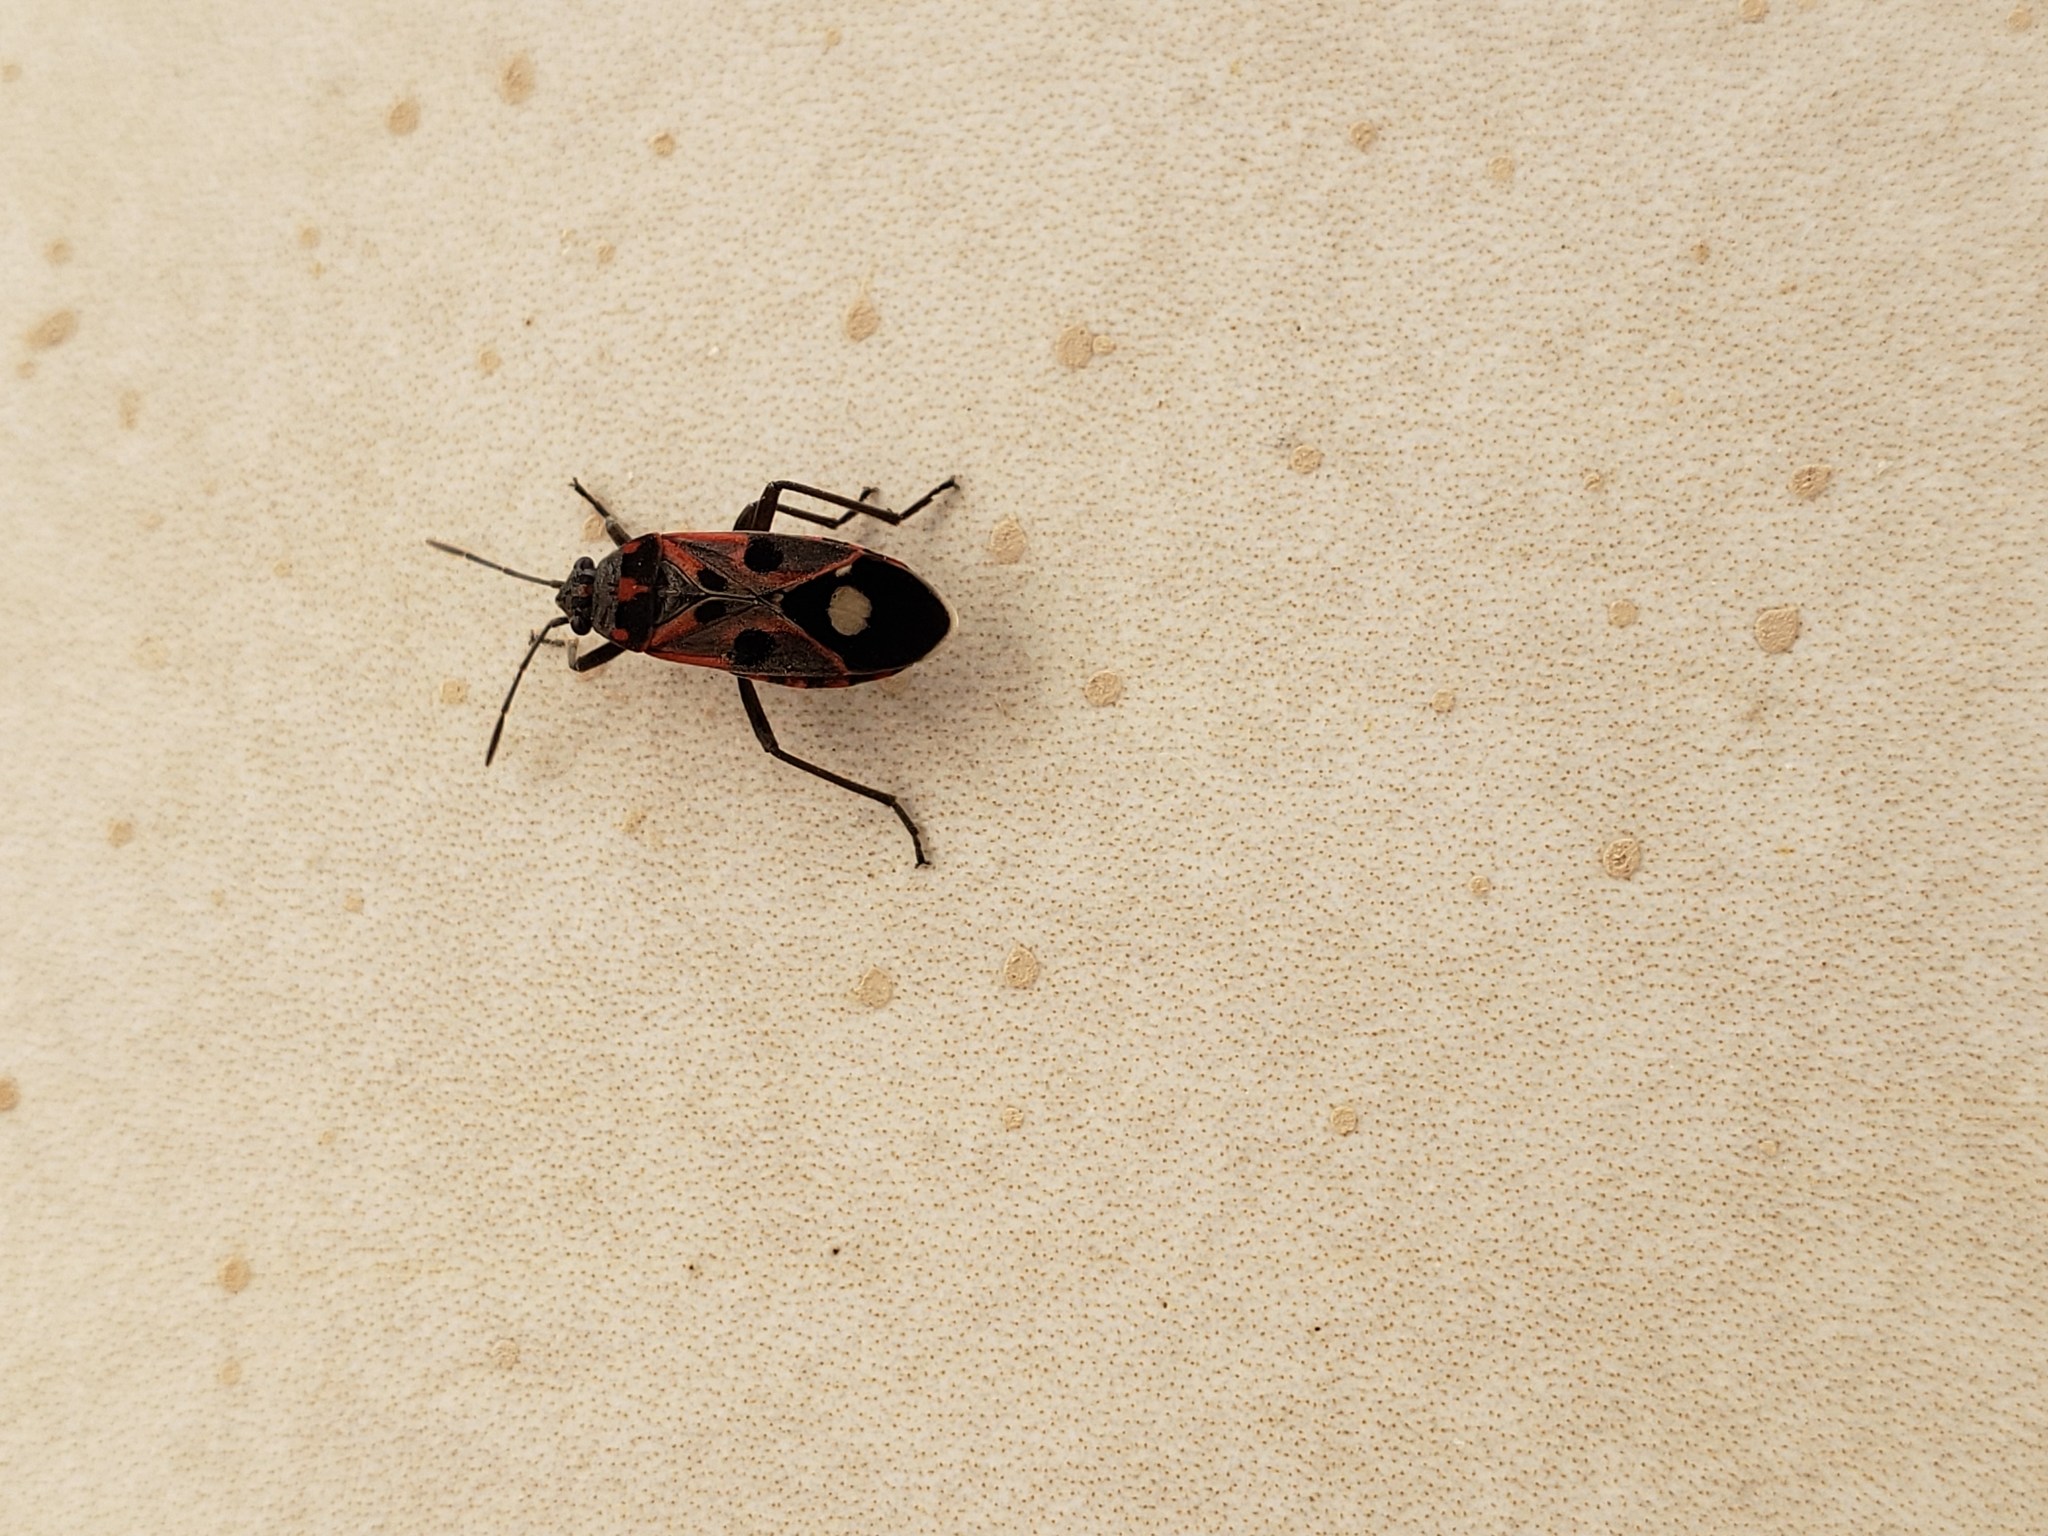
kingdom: Animalia
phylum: Arthropoda
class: Insecta
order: Hemiptera
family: Lygaeidae
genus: Lygaeus
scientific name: Lygaeus alboornatus
